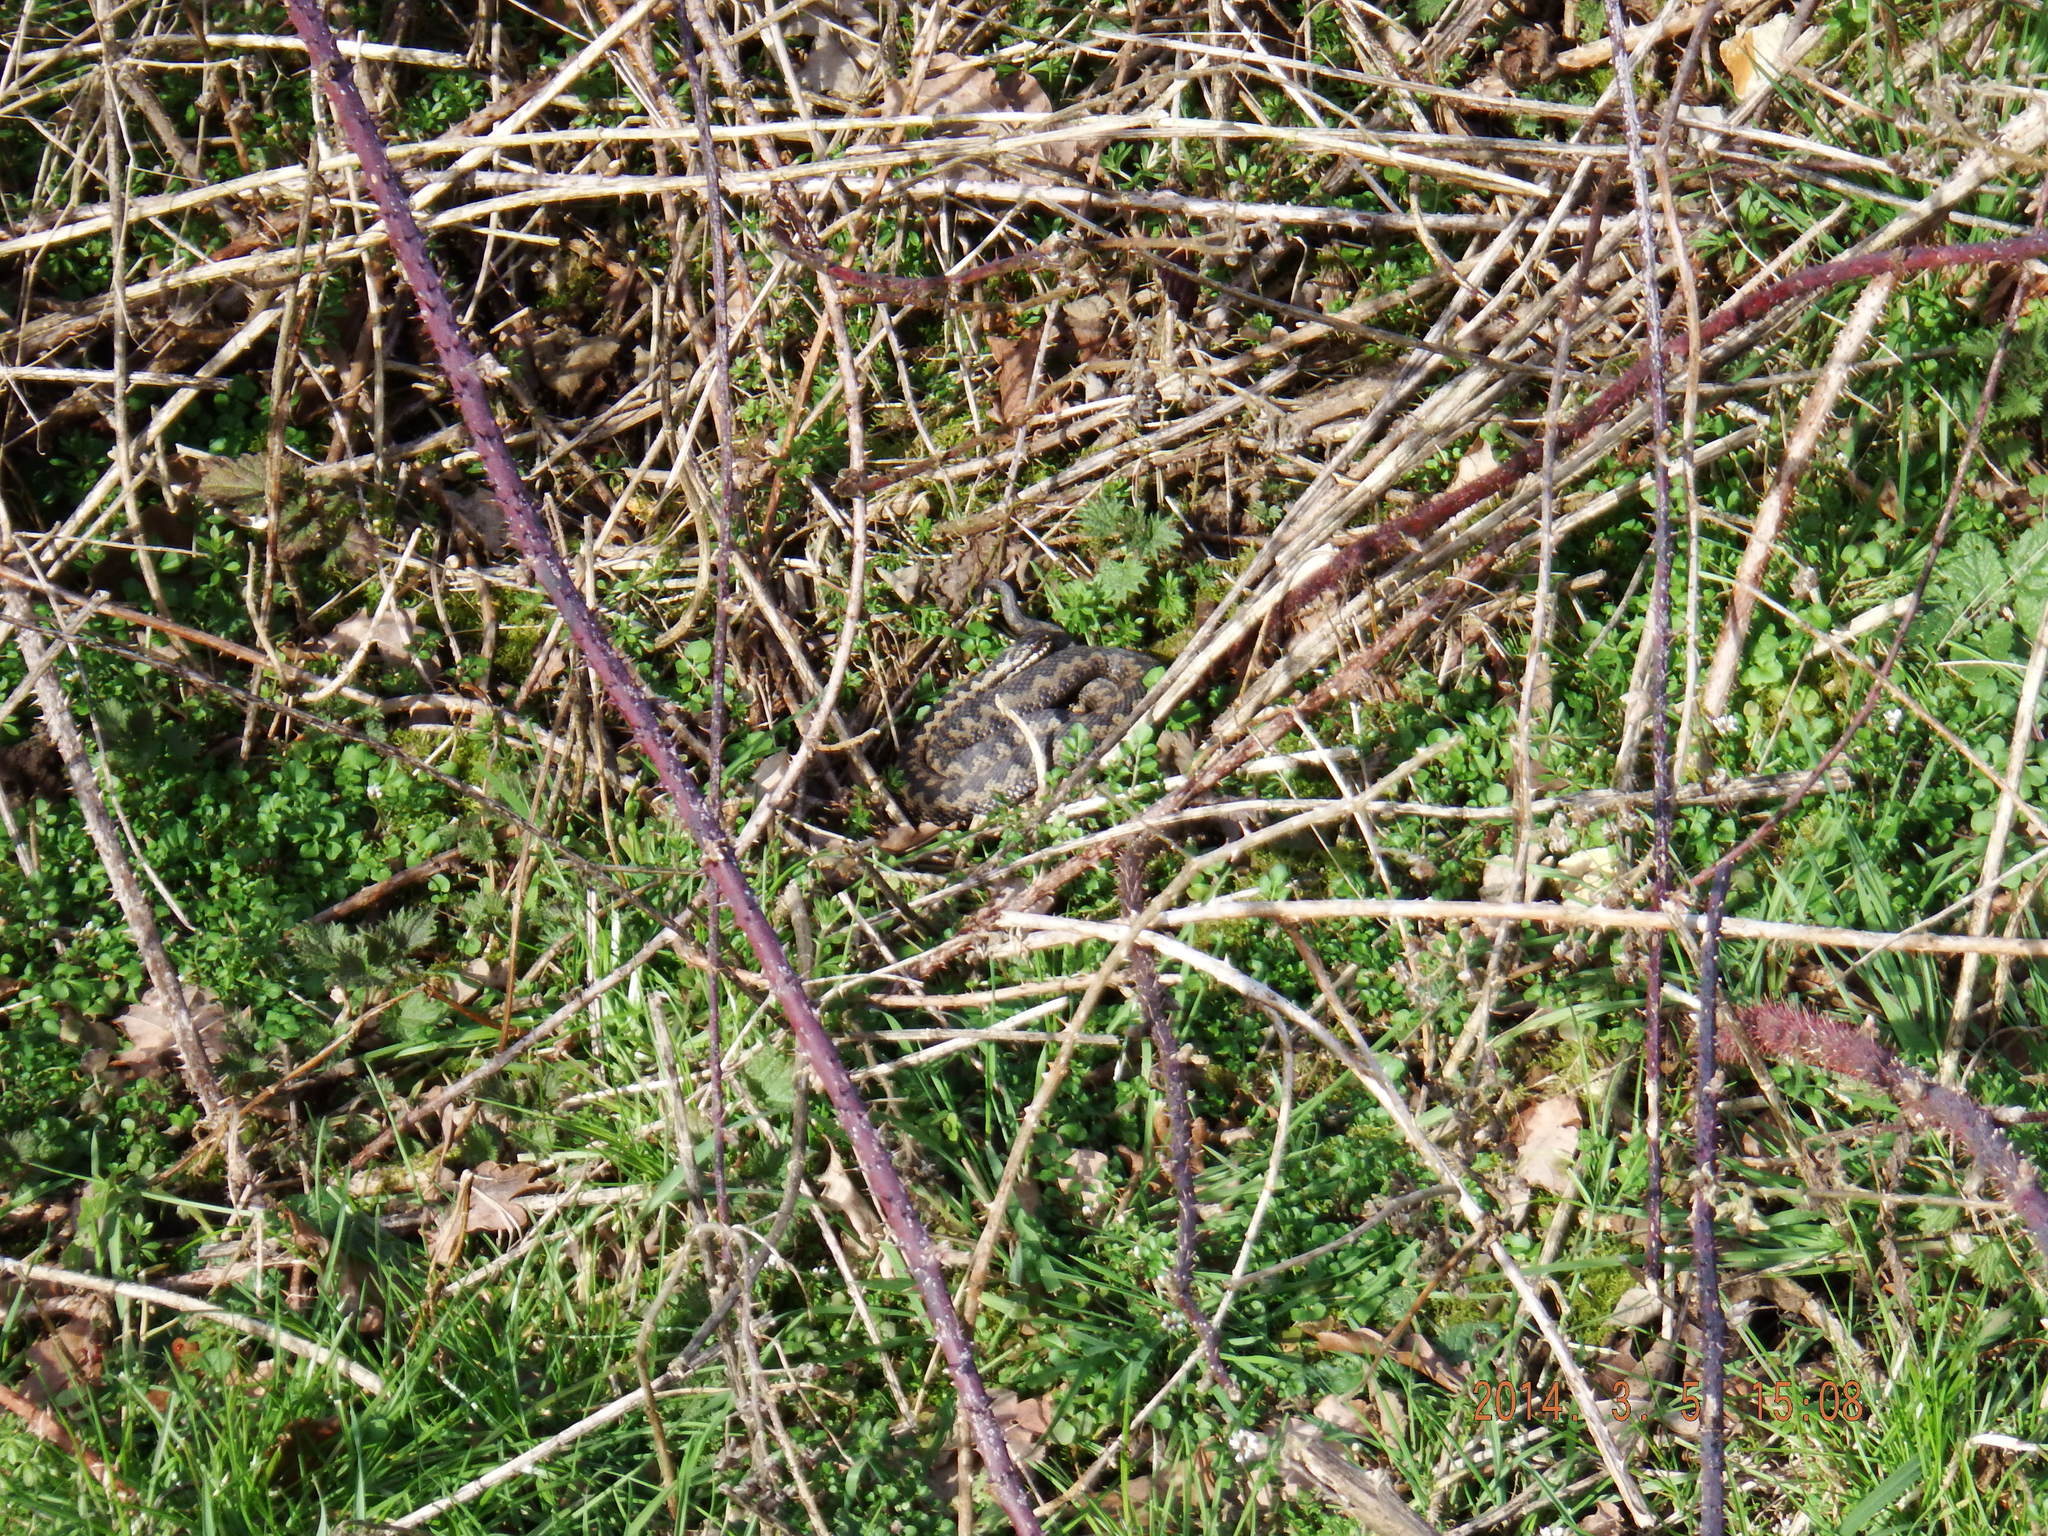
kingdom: Animalia
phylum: Chordata
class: Squamata
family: Viperidae
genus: Vipera
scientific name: Vipera berus
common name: Adder
